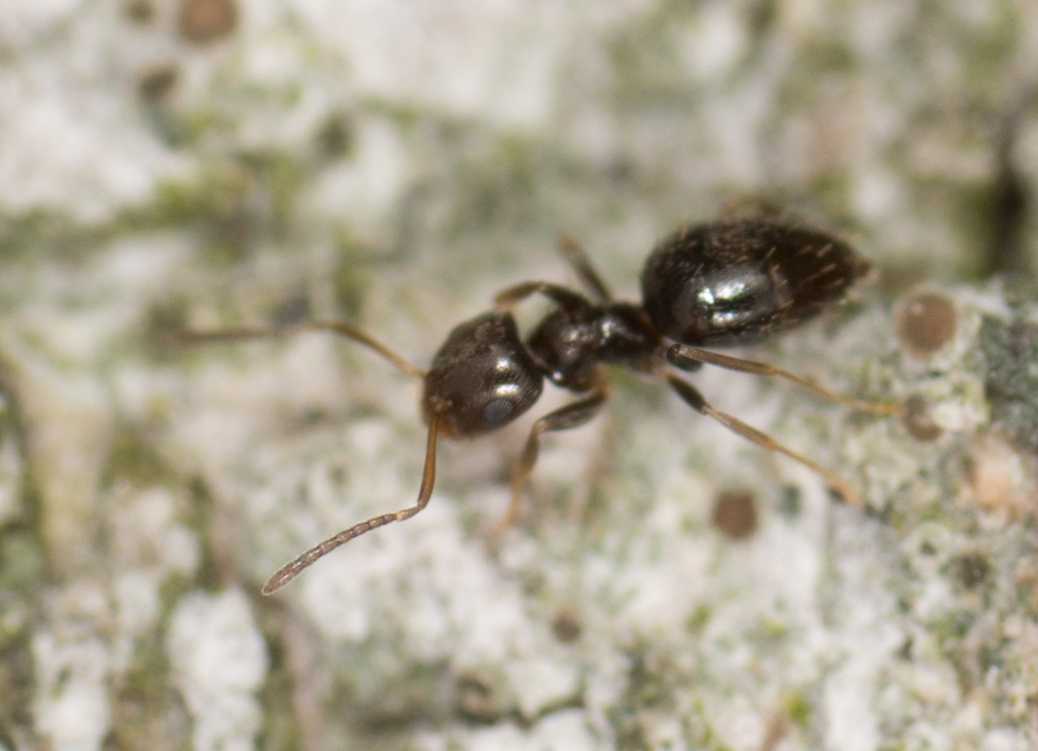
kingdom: Animalia
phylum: Arthropoda
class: Insecta
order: Hymenoptera
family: Formicidae
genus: Brachymyrmex
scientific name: Brachymyrmex patagonicus
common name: Dark rover ant
